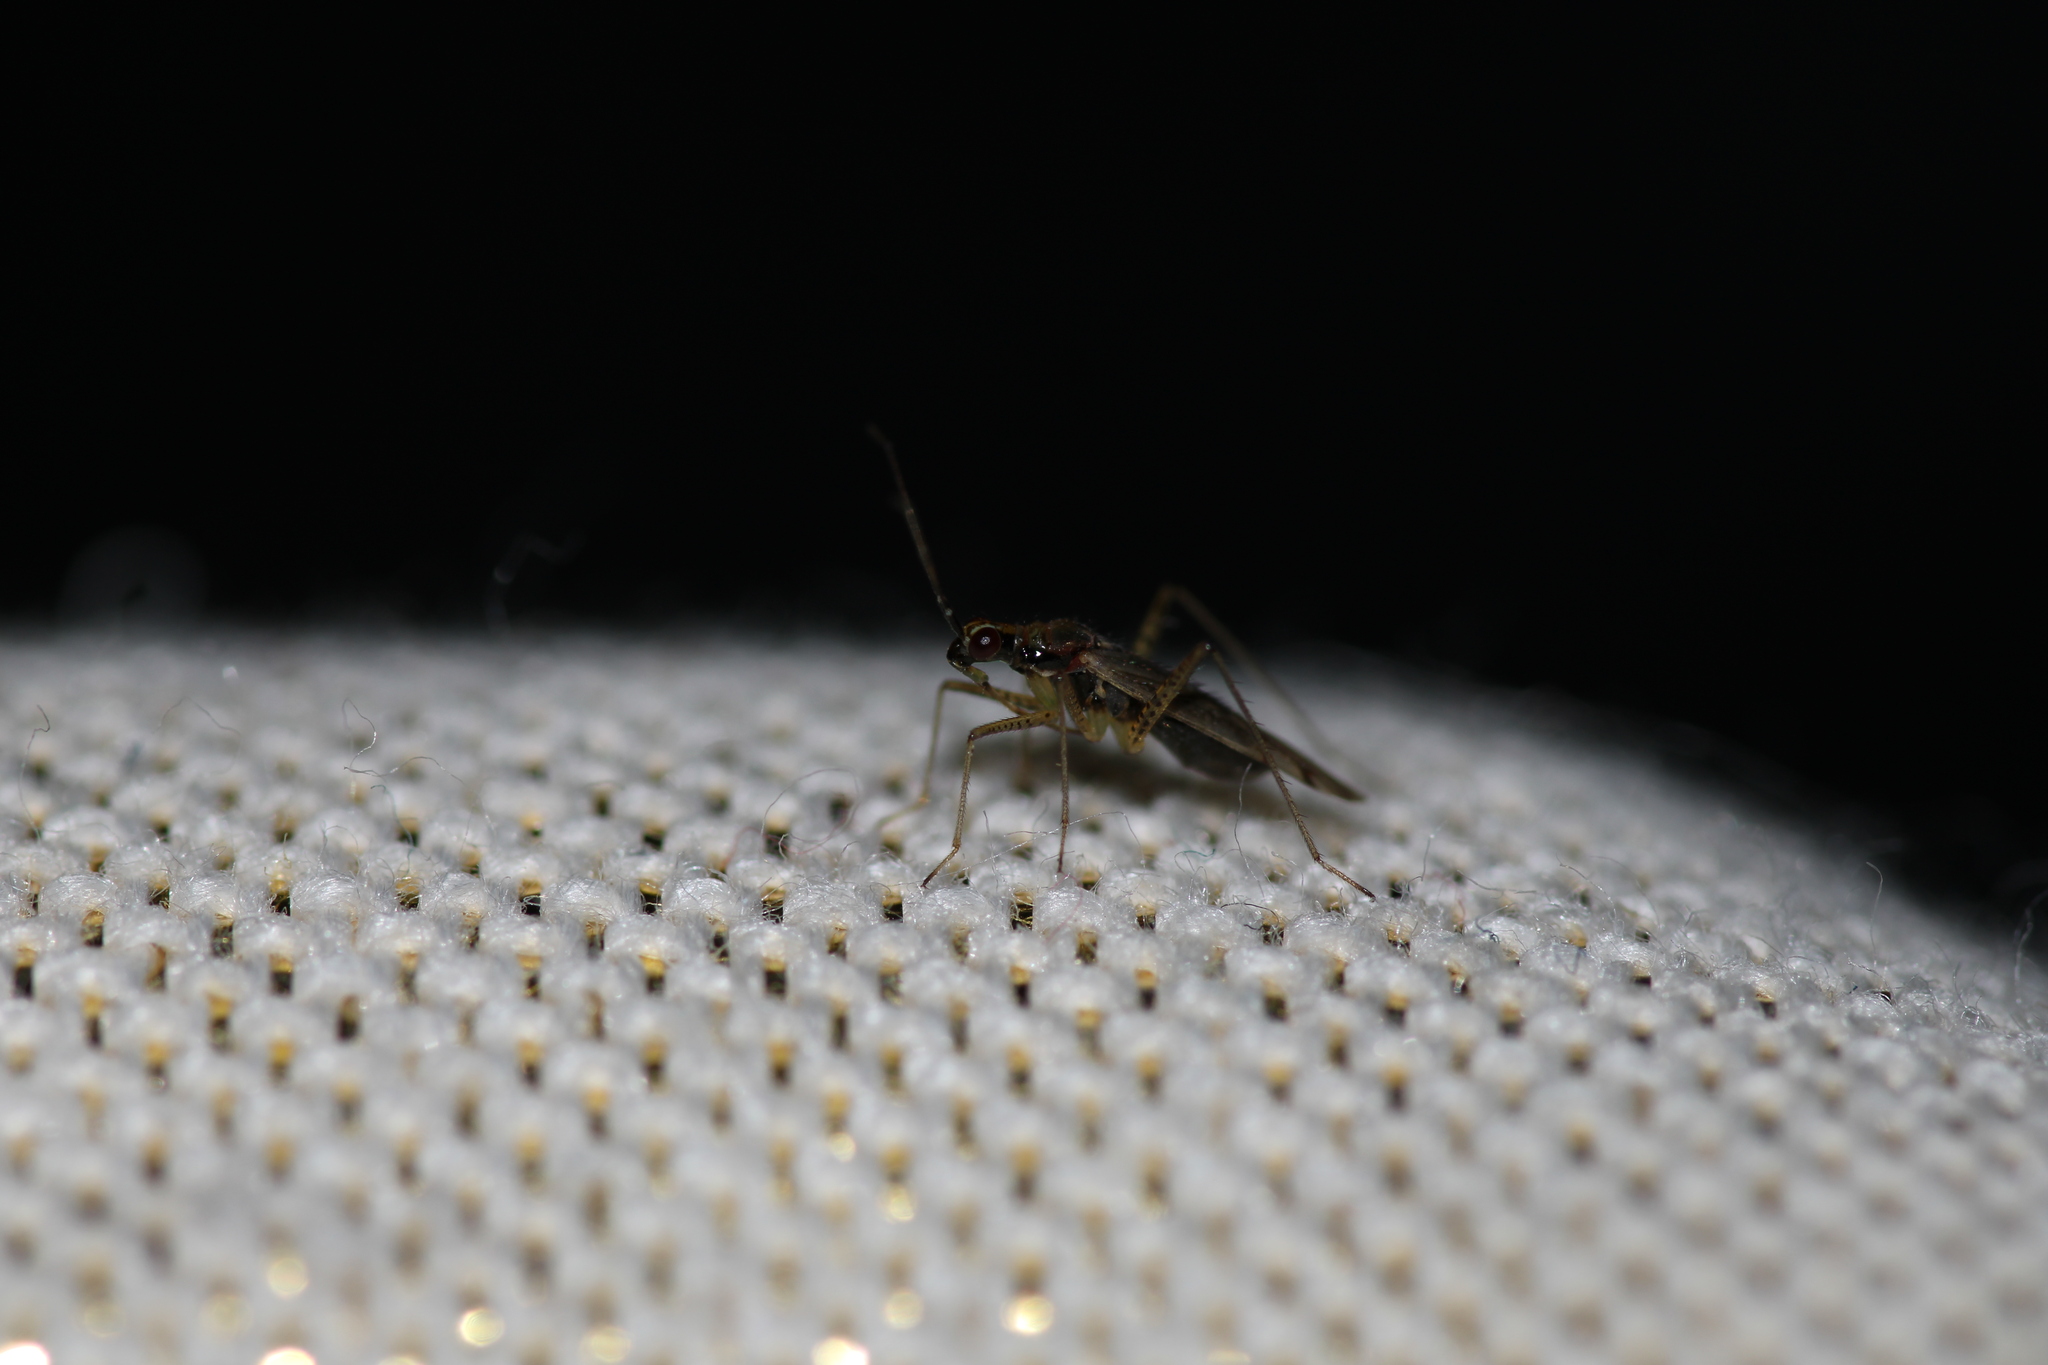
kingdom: Animalia
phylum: Arthropoda
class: Insecta
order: Hemiptera
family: Miridae
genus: Dicyphus
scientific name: Dicyphus errans
